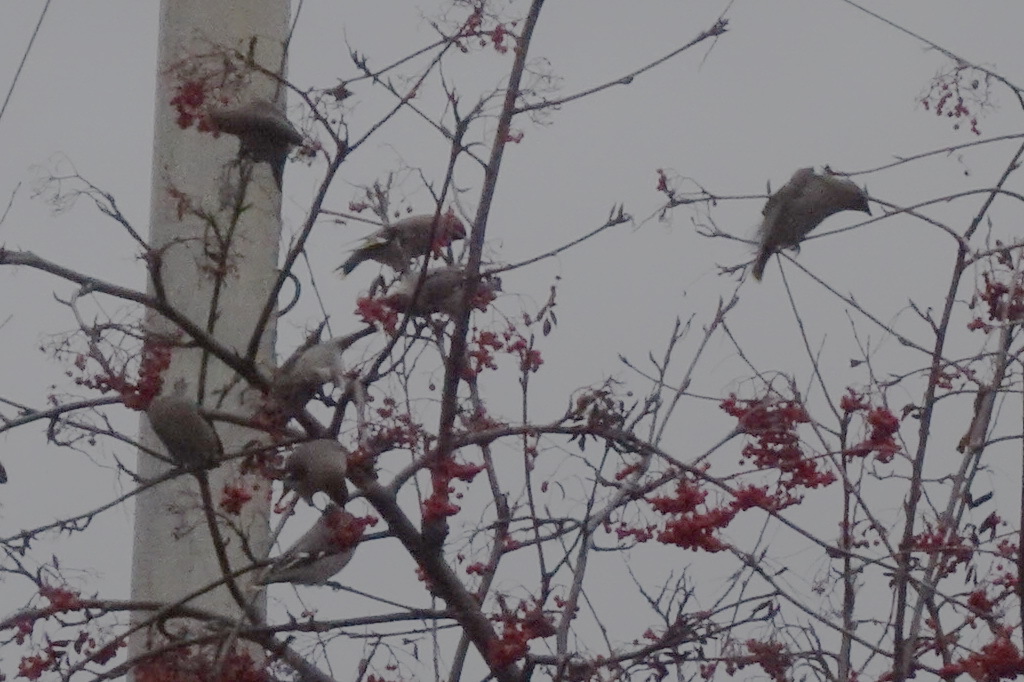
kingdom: Animalia
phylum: Chordata
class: Aves
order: Passeriformes
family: Bombycillidae
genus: Bombycilla
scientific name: Bombycilla garrulus
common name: Bohemian waxwing
